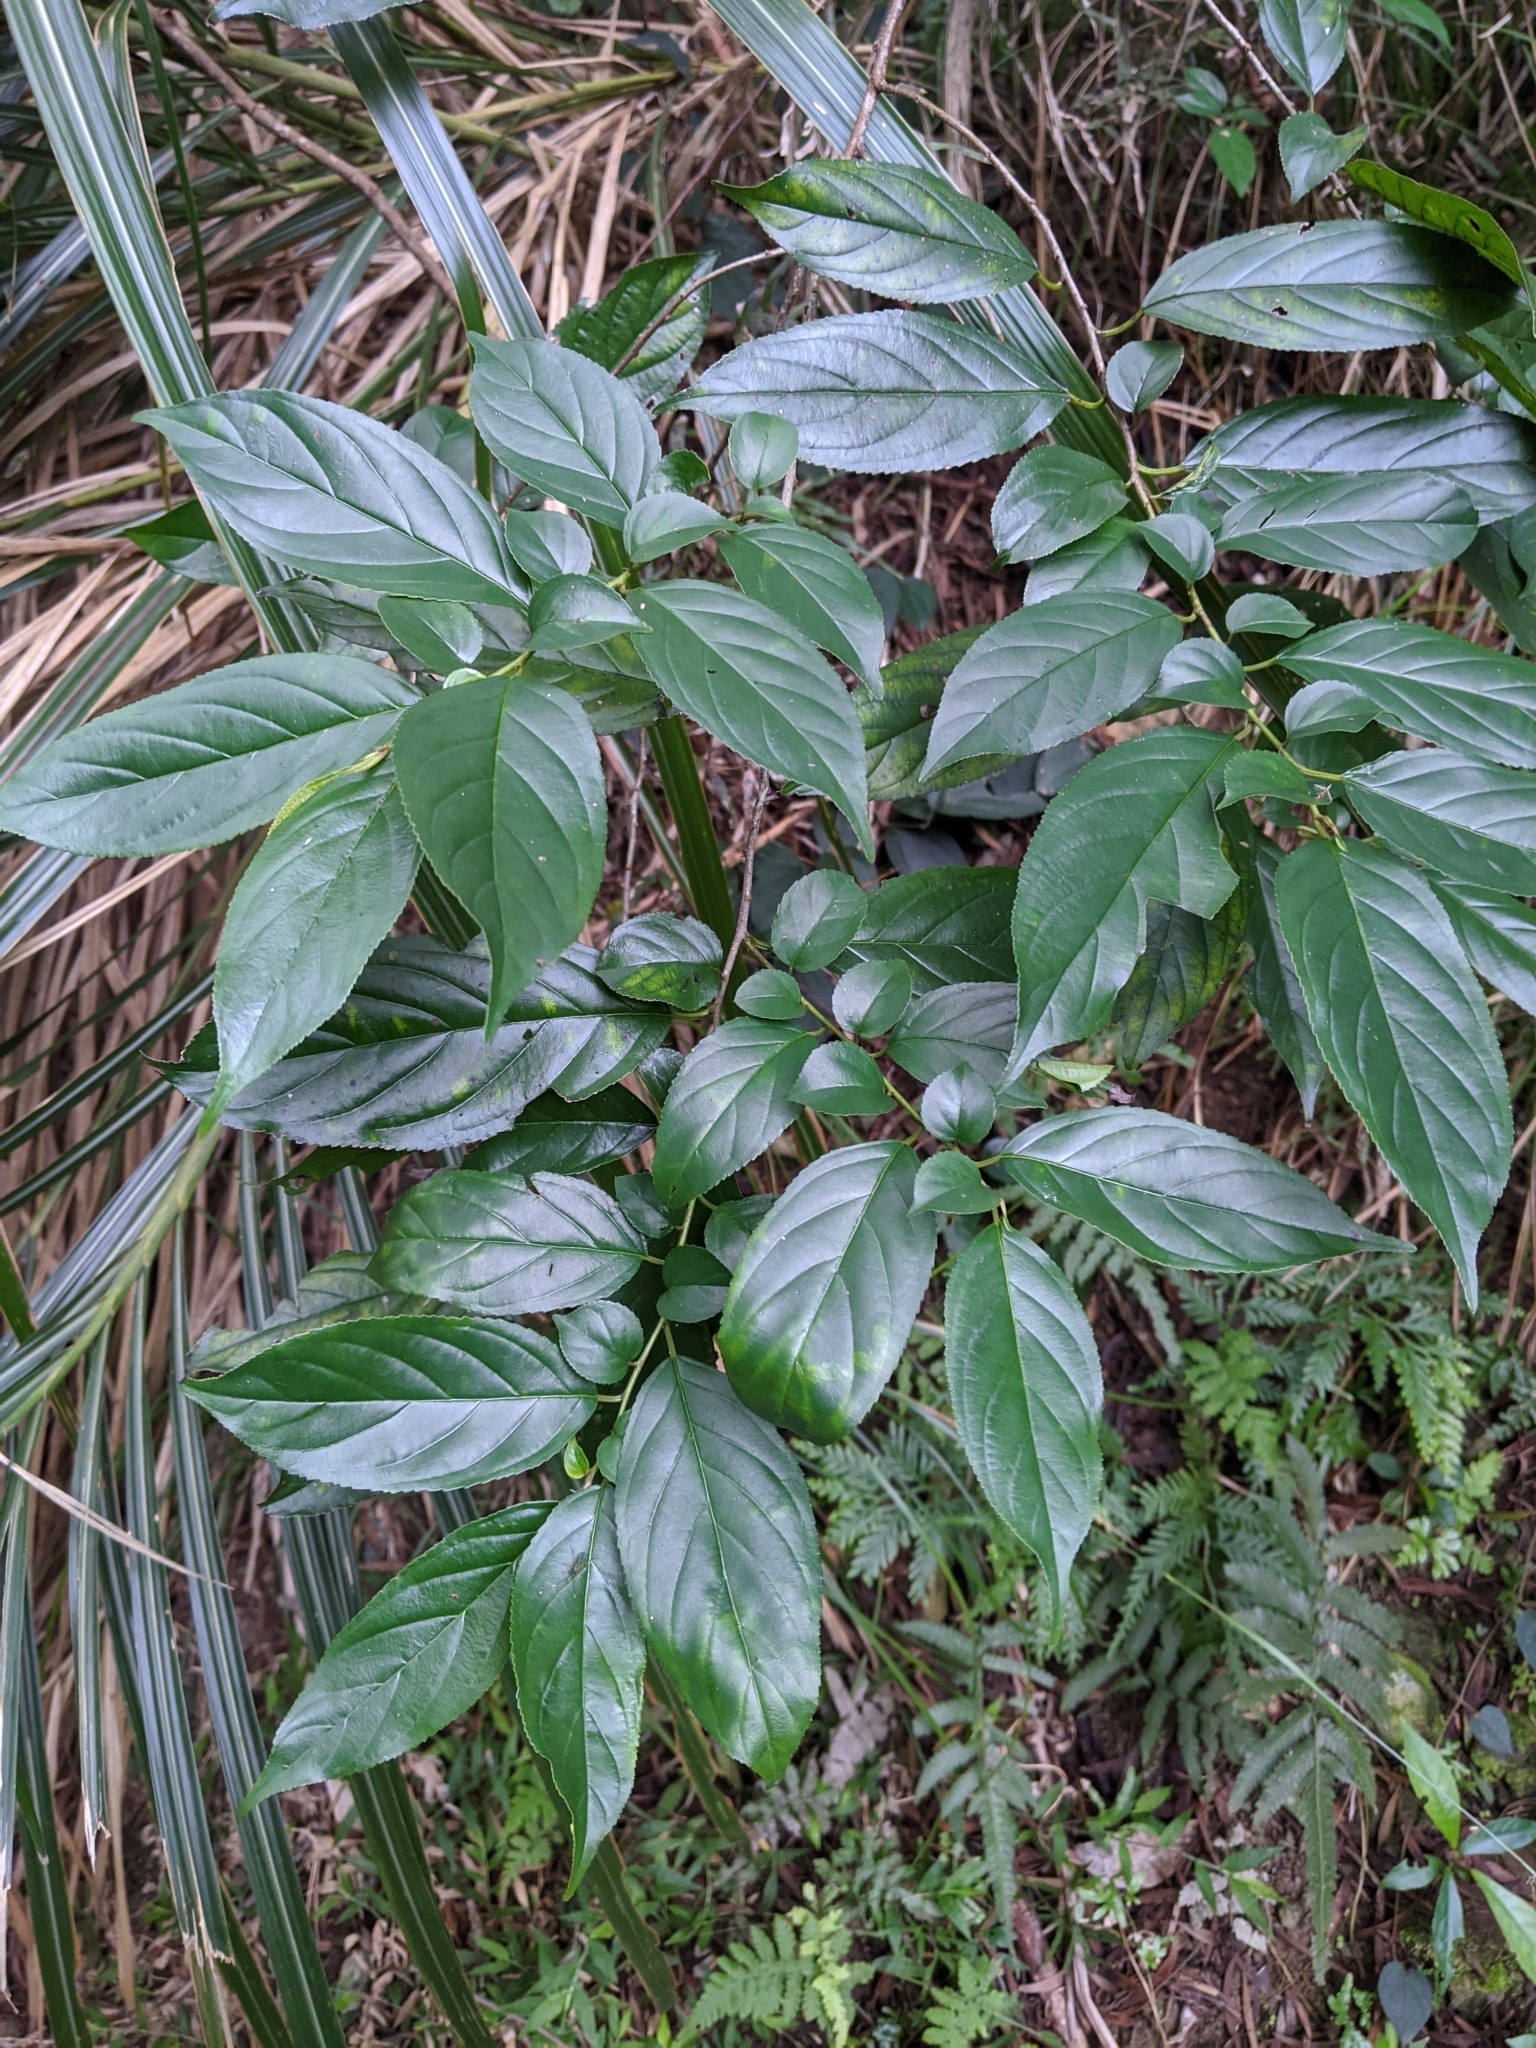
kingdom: Plantae
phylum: Tracheophyta
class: Magnoliopsida
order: Rosales
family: Rhamnaceae
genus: Rhamnus
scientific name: Rhamnus formosana
